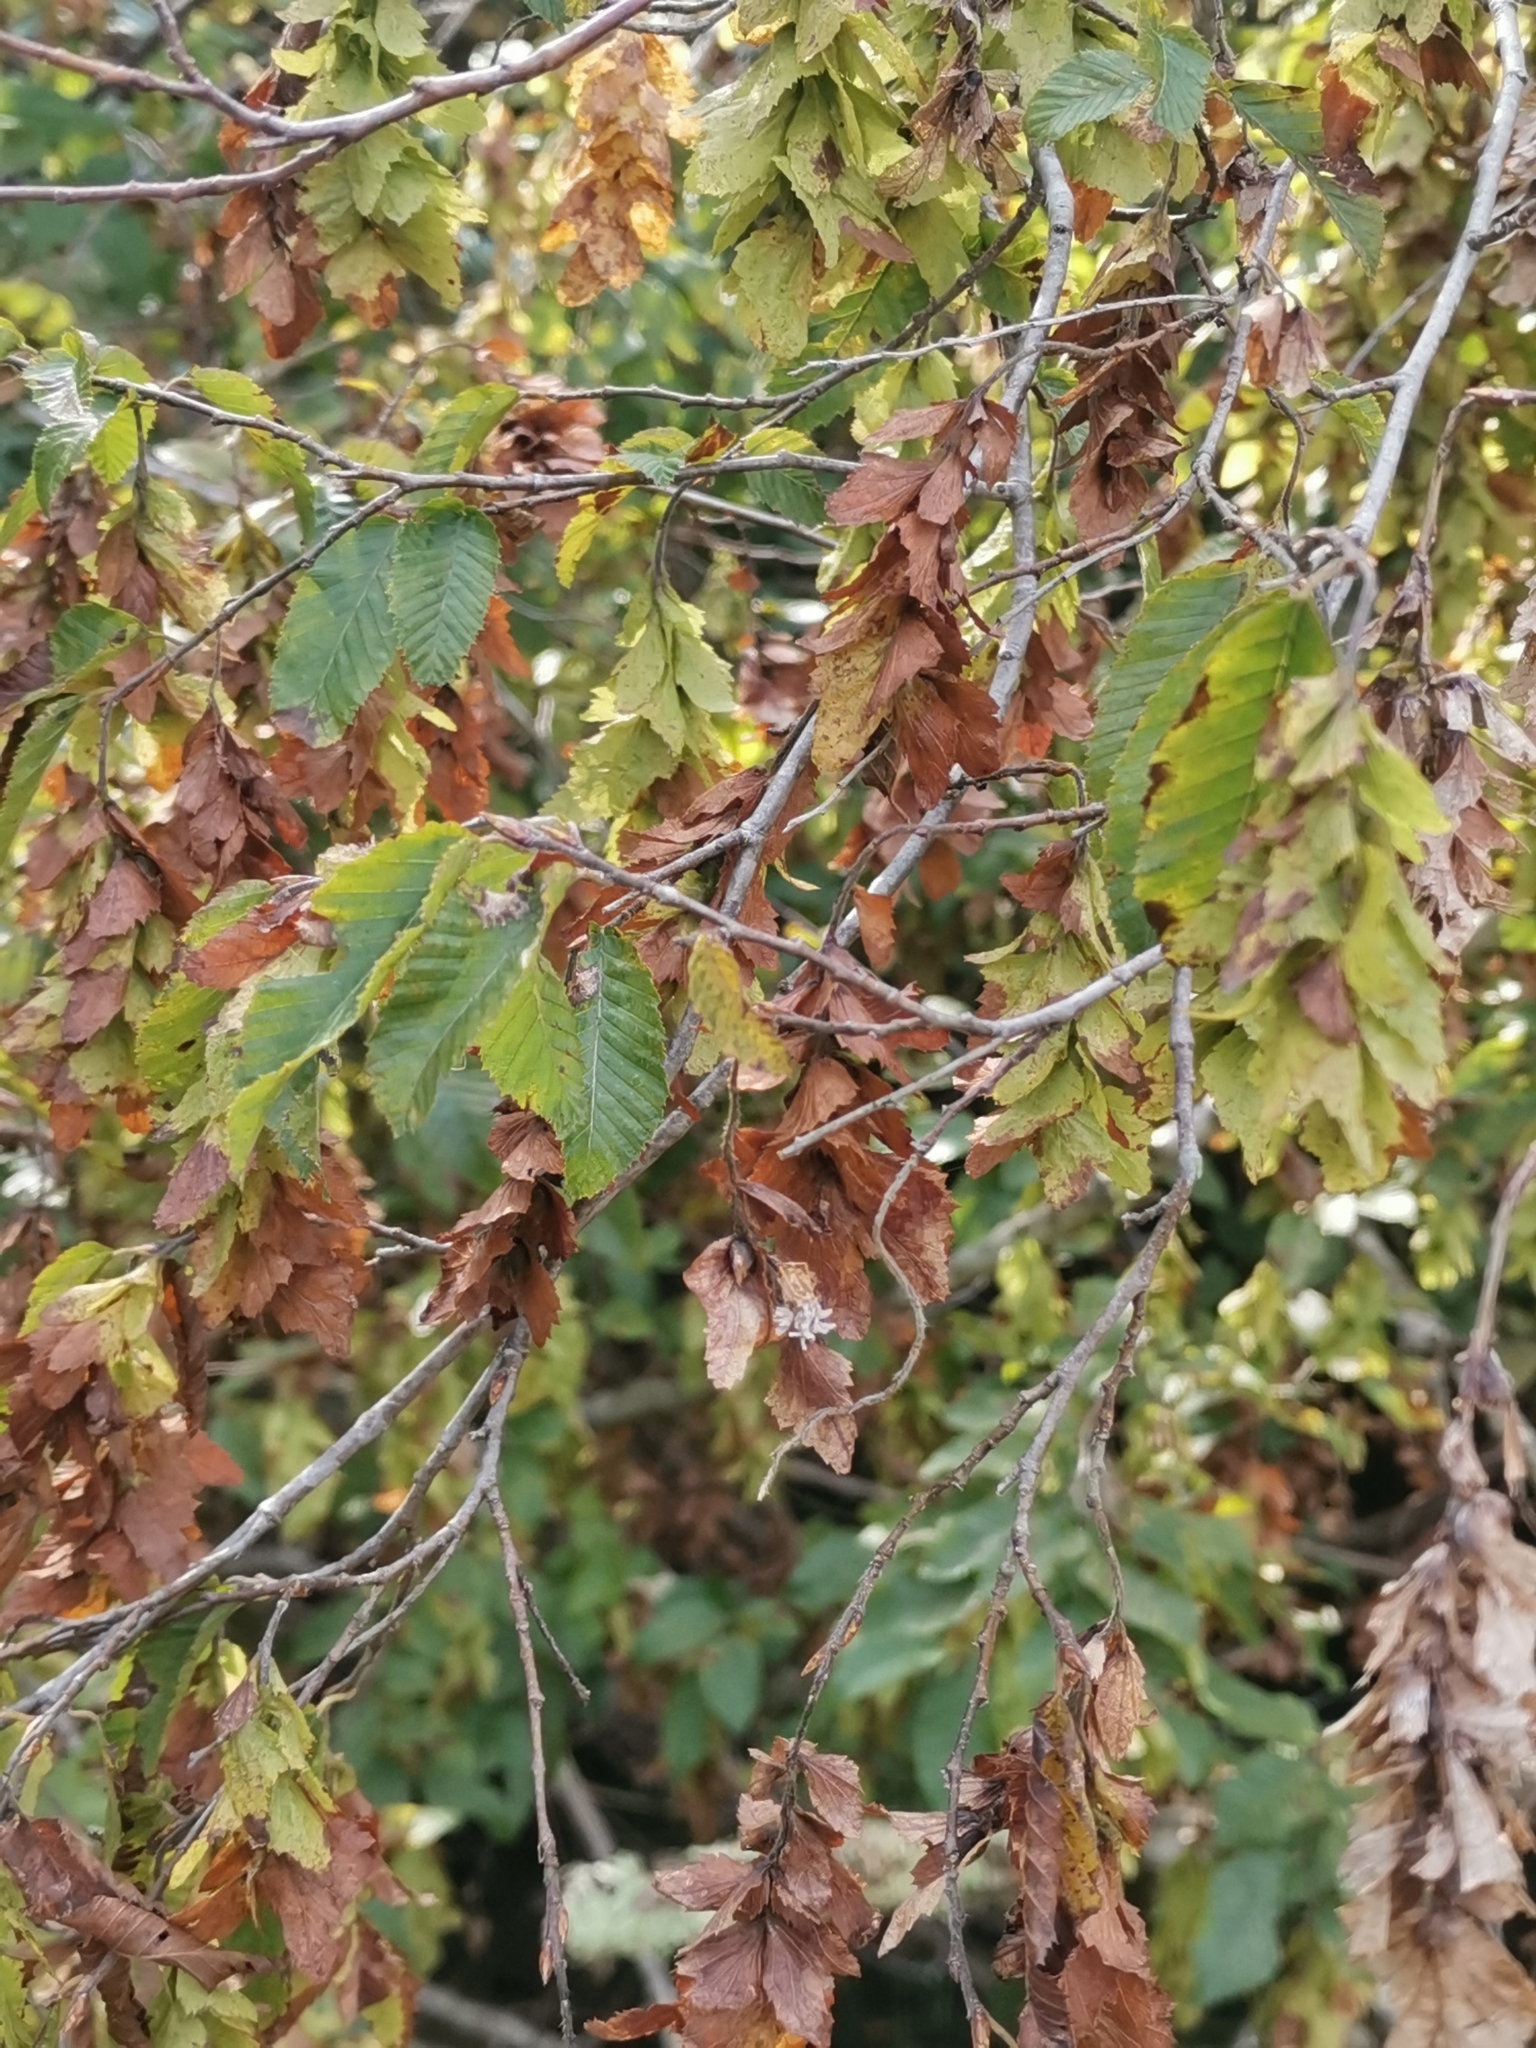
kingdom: Plantae
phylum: Tracheophyta
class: Magnoliopsida
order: Fagales
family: Betulaceae
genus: Carpinus
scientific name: Carpinus orientalis
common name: Eastern hornbeam
